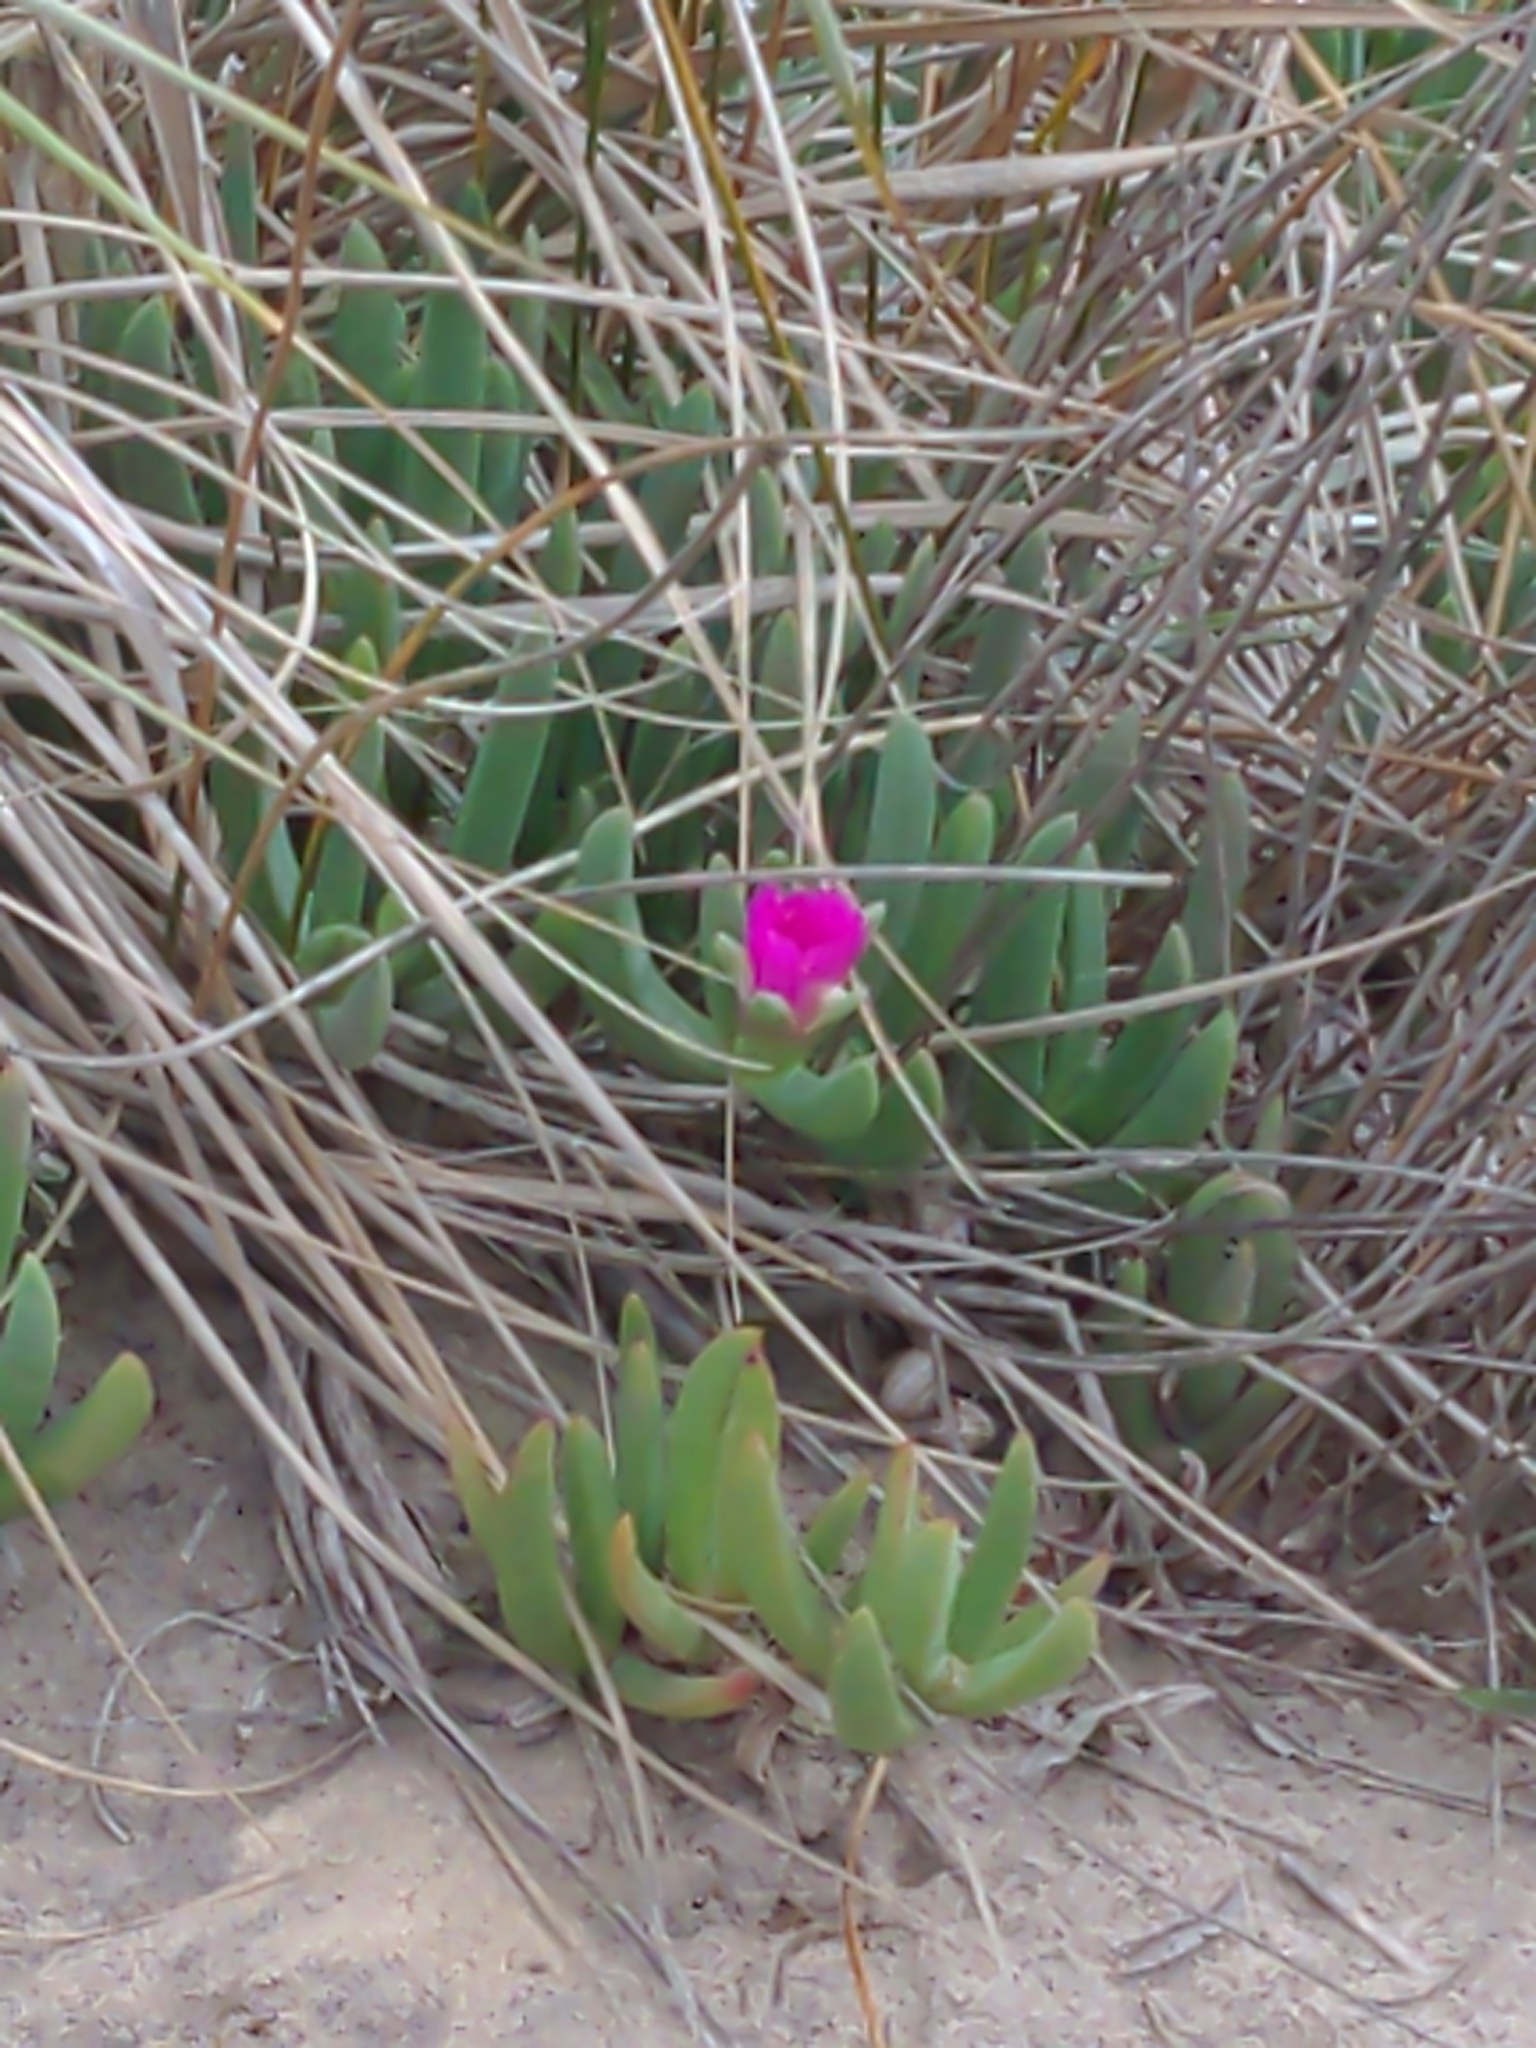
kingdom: Plantae
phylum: Tracheophyta
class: Magnoliopsida
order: Caryophyllales
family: Aizoaceae
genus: Carpobrotus
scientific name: Carpobrotus rossii
